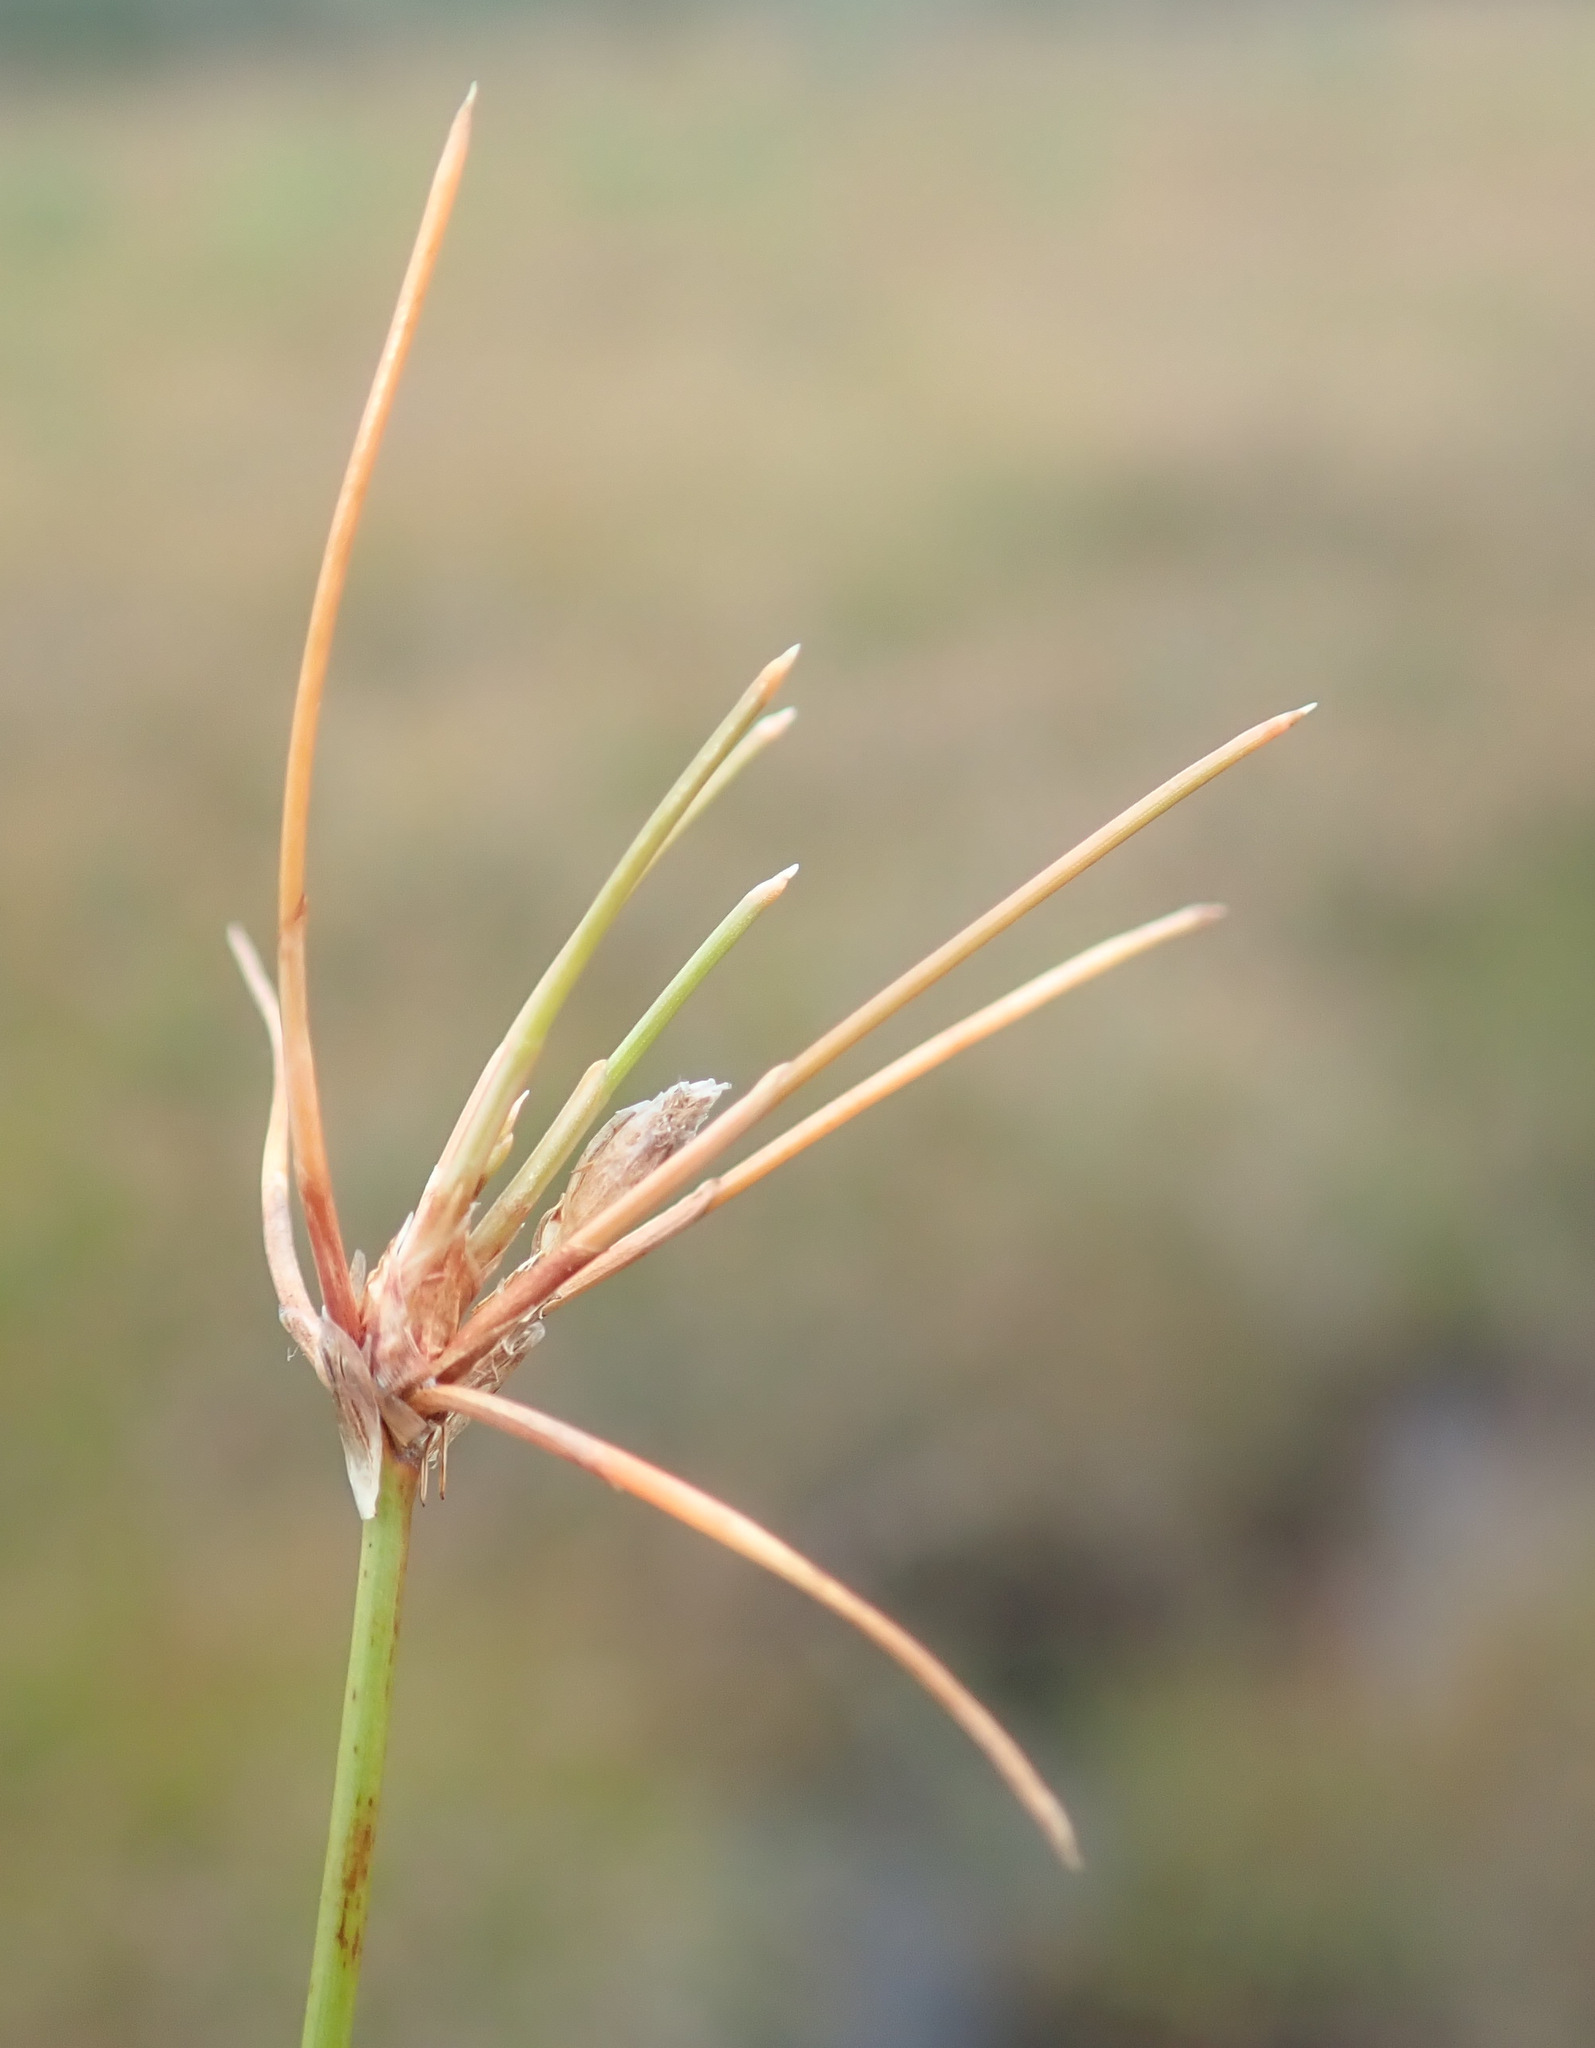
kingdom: Plantae
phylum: Tracheophyta
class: Liliopsida
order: Poales
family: Cyperaceae
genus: Eleocharis
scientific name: Eleocharis multicaulis
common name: Many-stalked spike-rush
